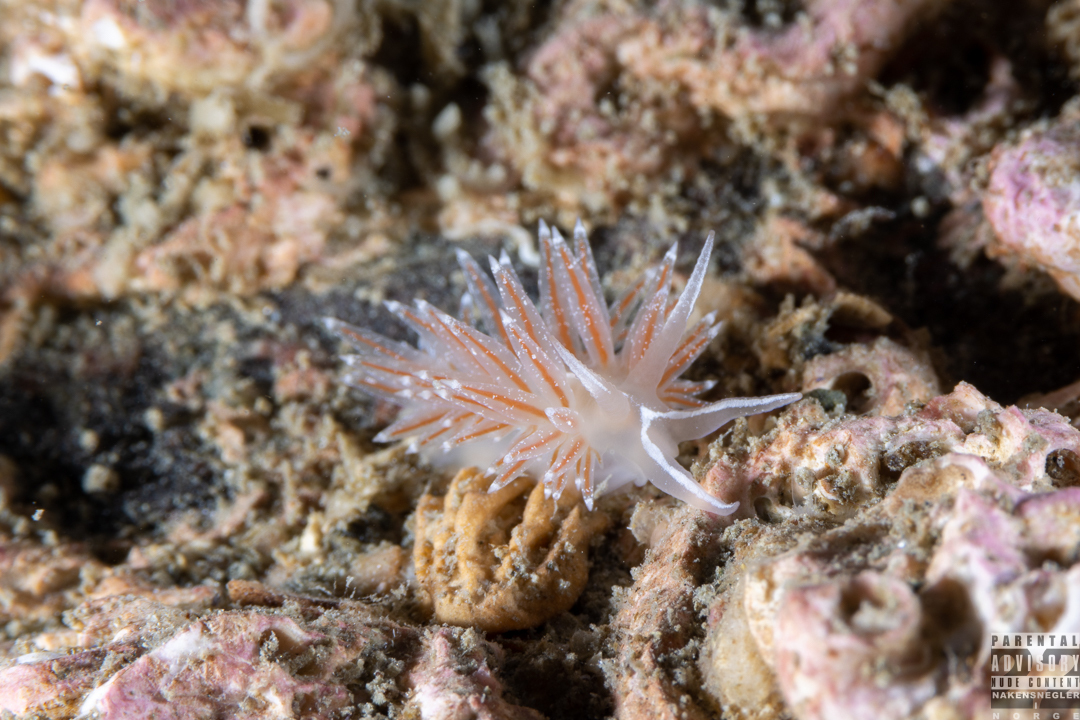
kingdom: Animalia
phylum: Mollusca
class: Gastropoda
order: Nudibranchia
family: Coryphellidae
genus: Coryphella
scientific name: Coryphella orjani
